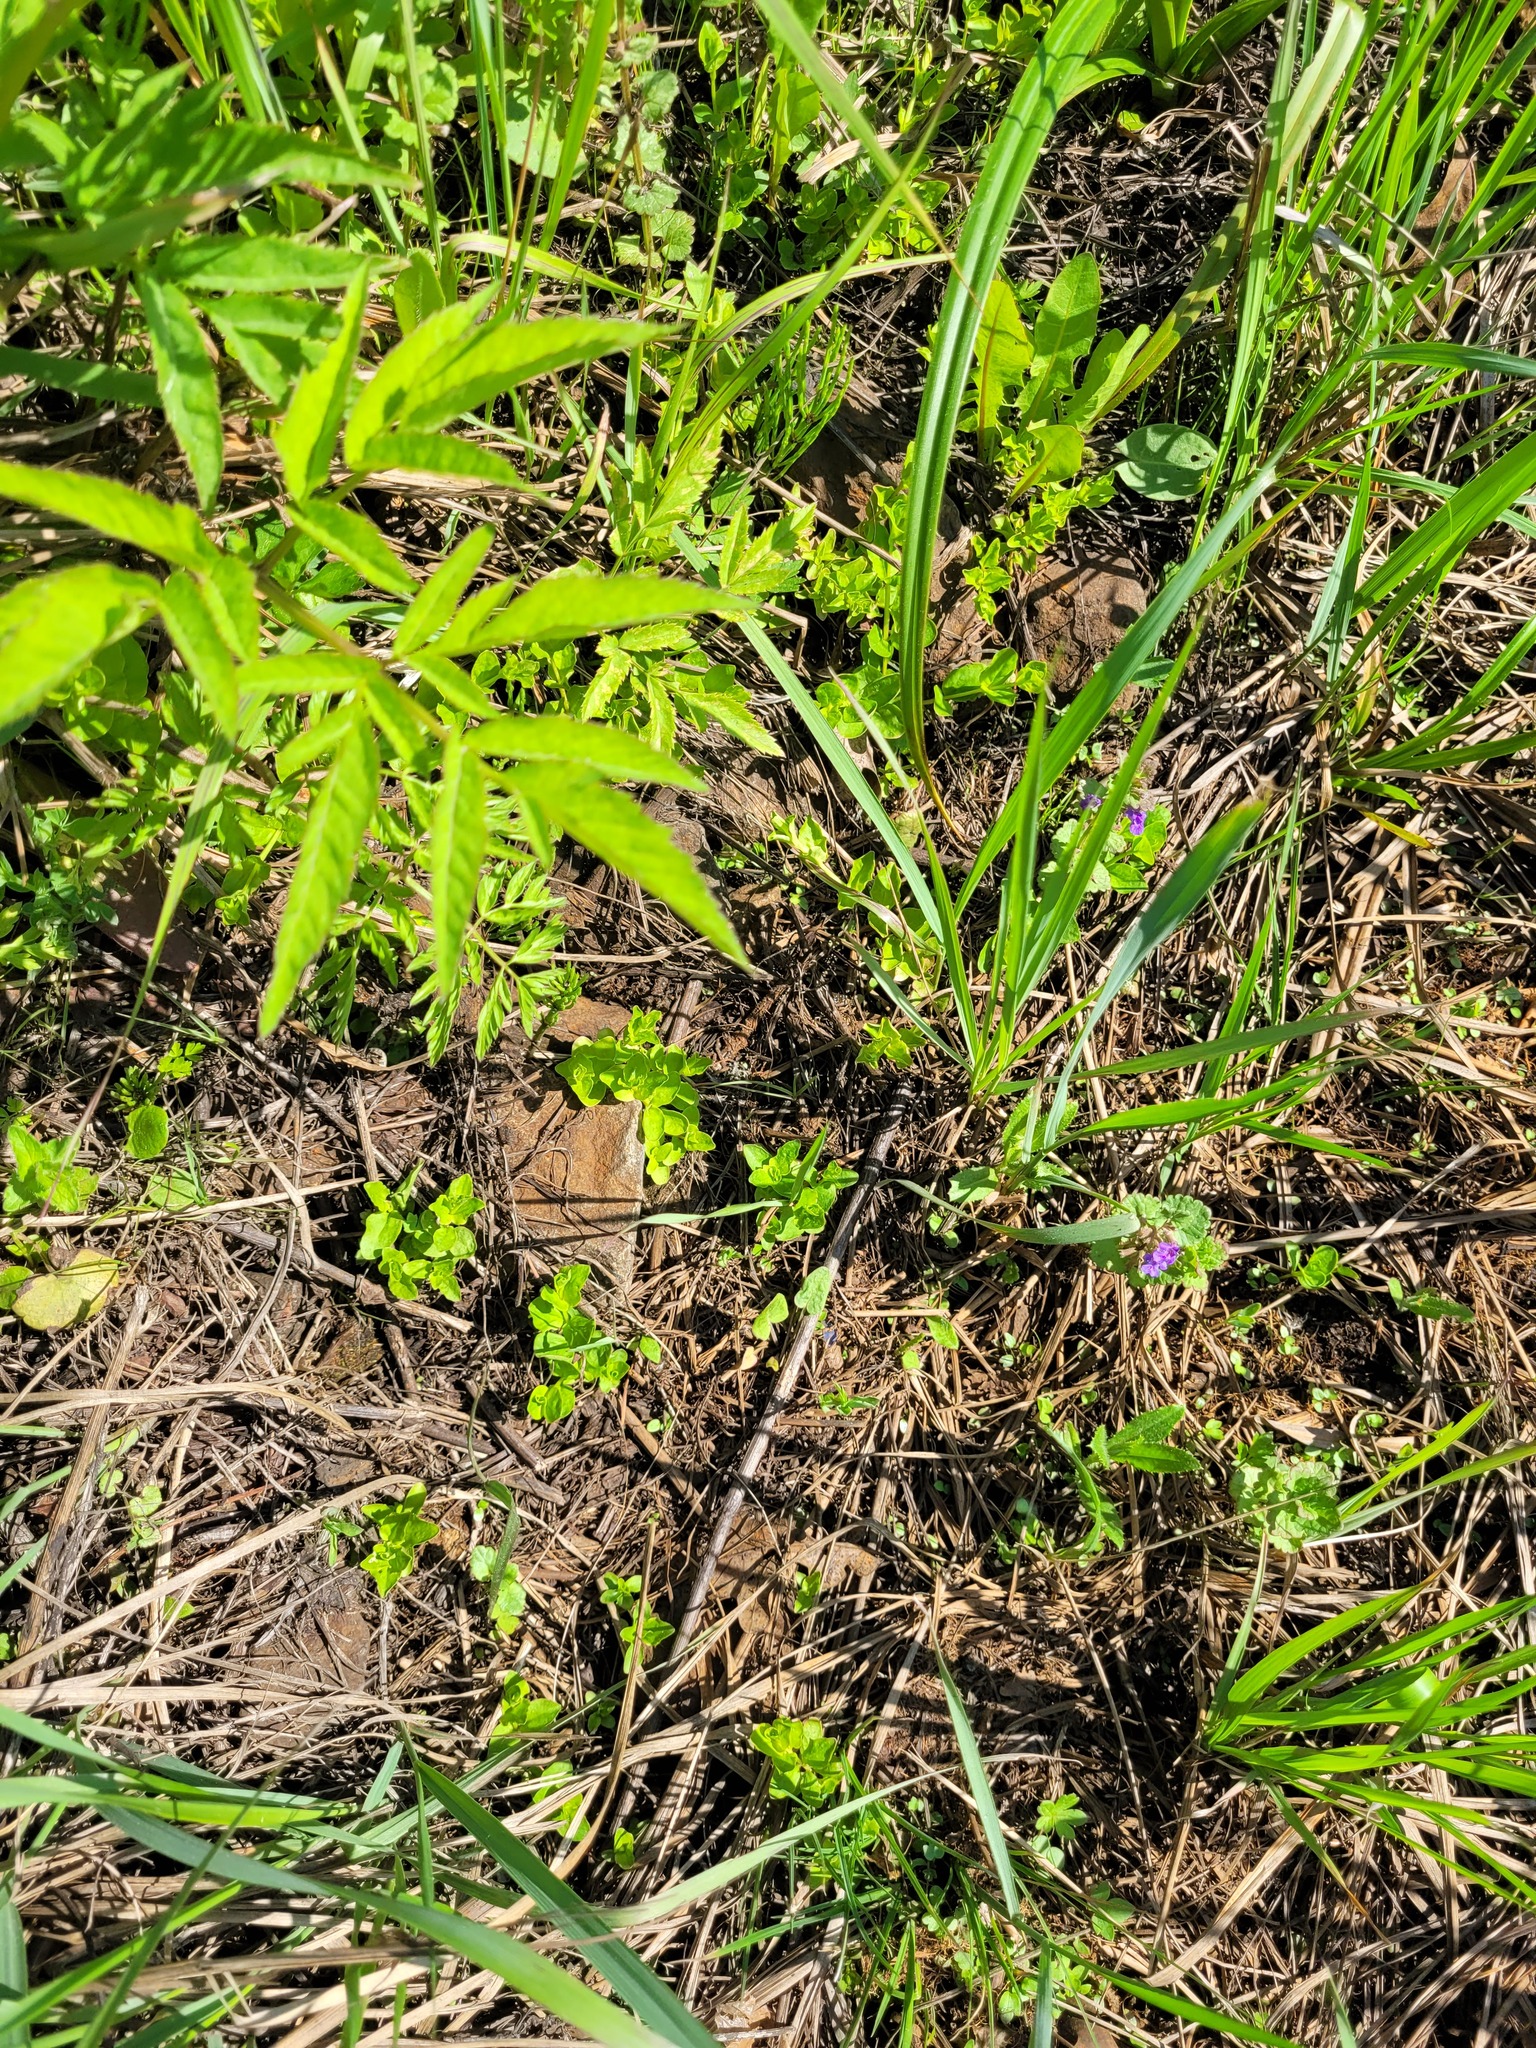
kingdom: Plantae
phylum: Tracheophyta
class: Magnoliopsida
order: Ericales
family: Primulaceae
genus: Lysimachia
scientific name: Lysimachia nummularia
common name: Moneywort
